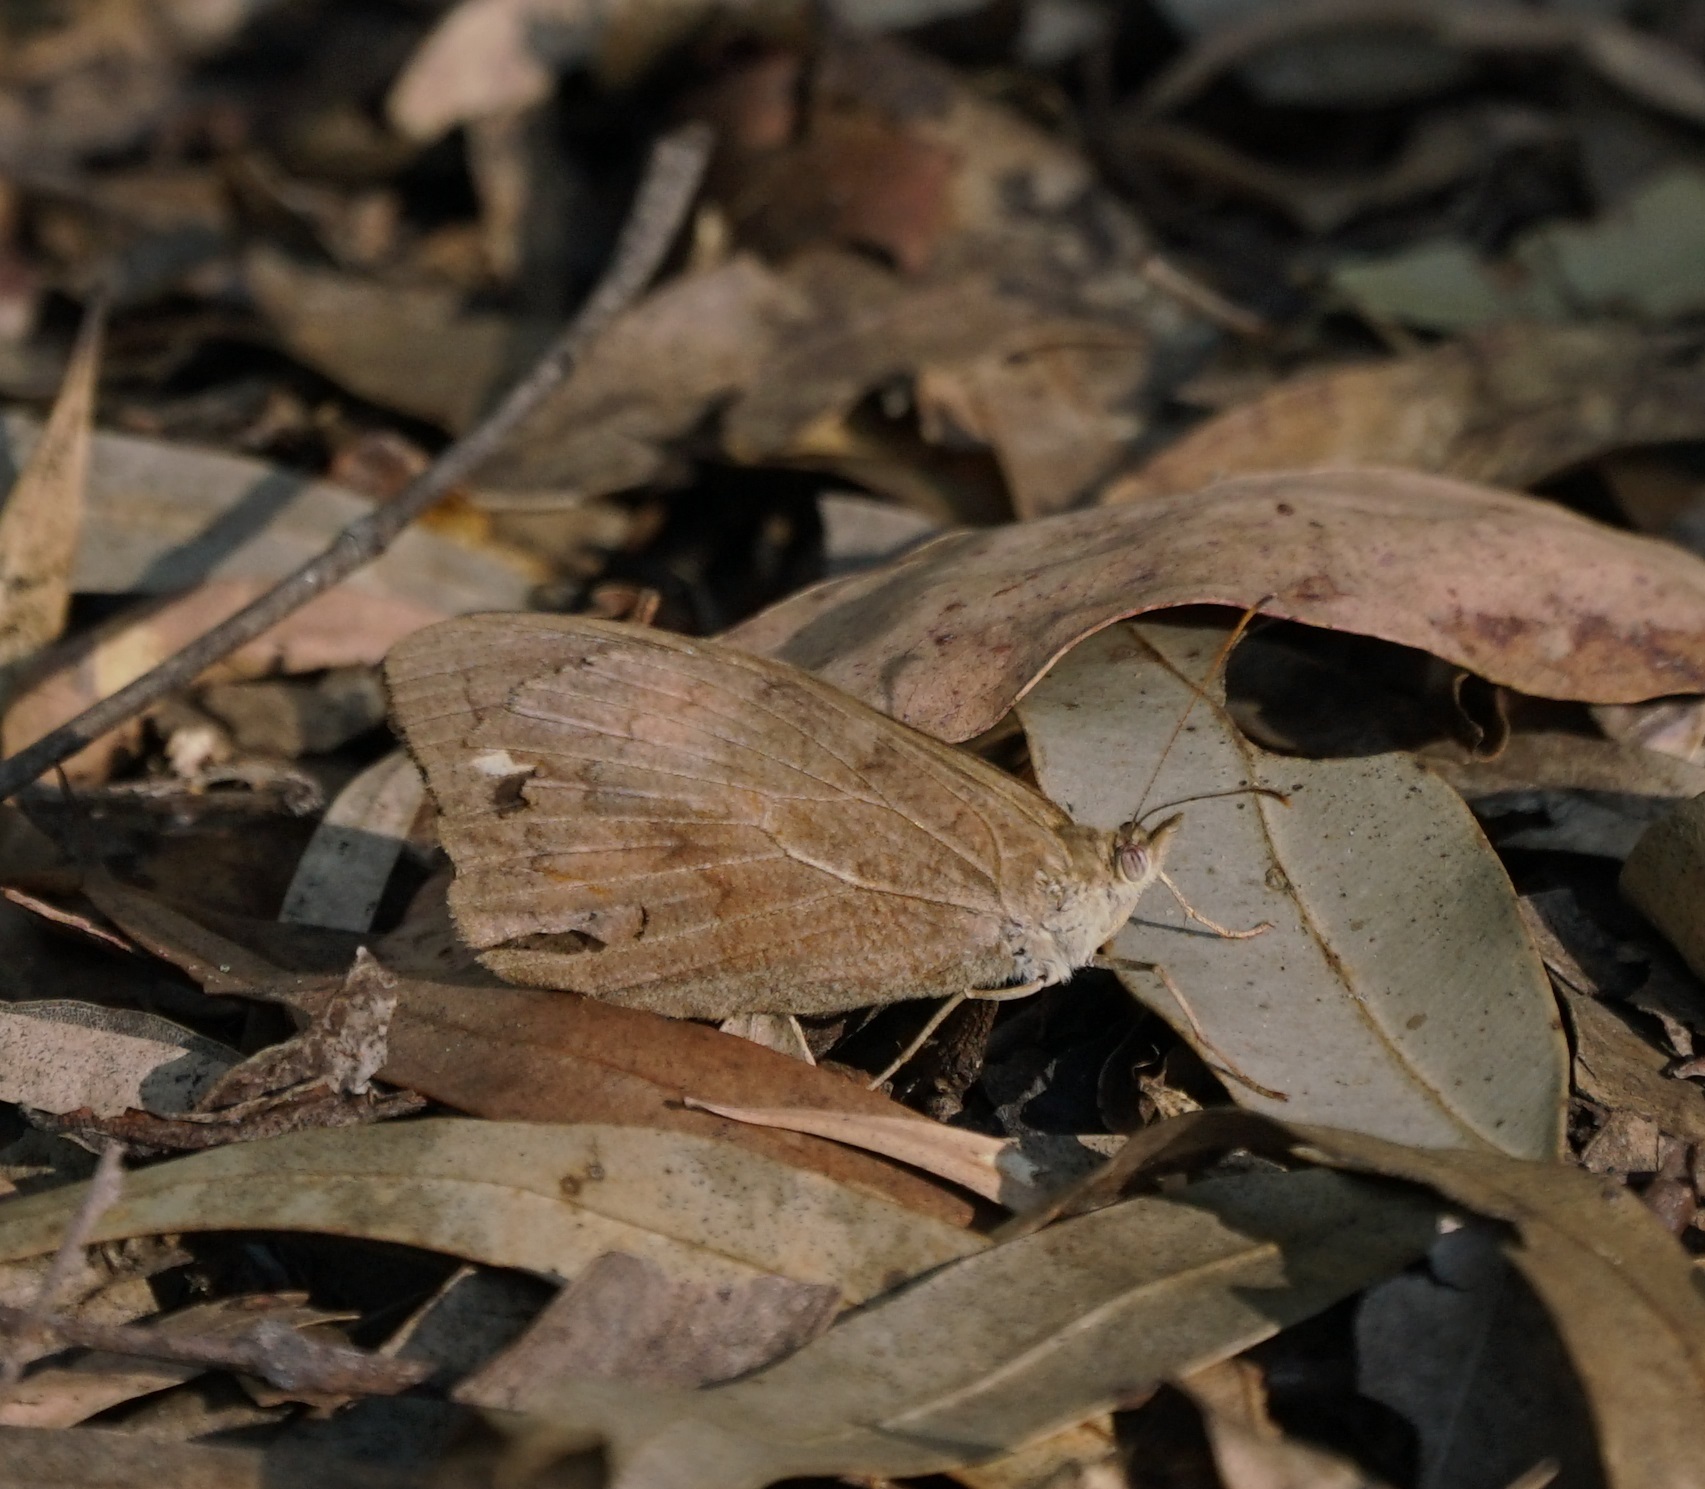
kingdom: Animalia
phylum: Arthropoda
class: Insecta
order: Lepidoptera
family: Nymphalidae
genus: Heteronympha
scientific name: Heteronympha merope
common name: Common brown
